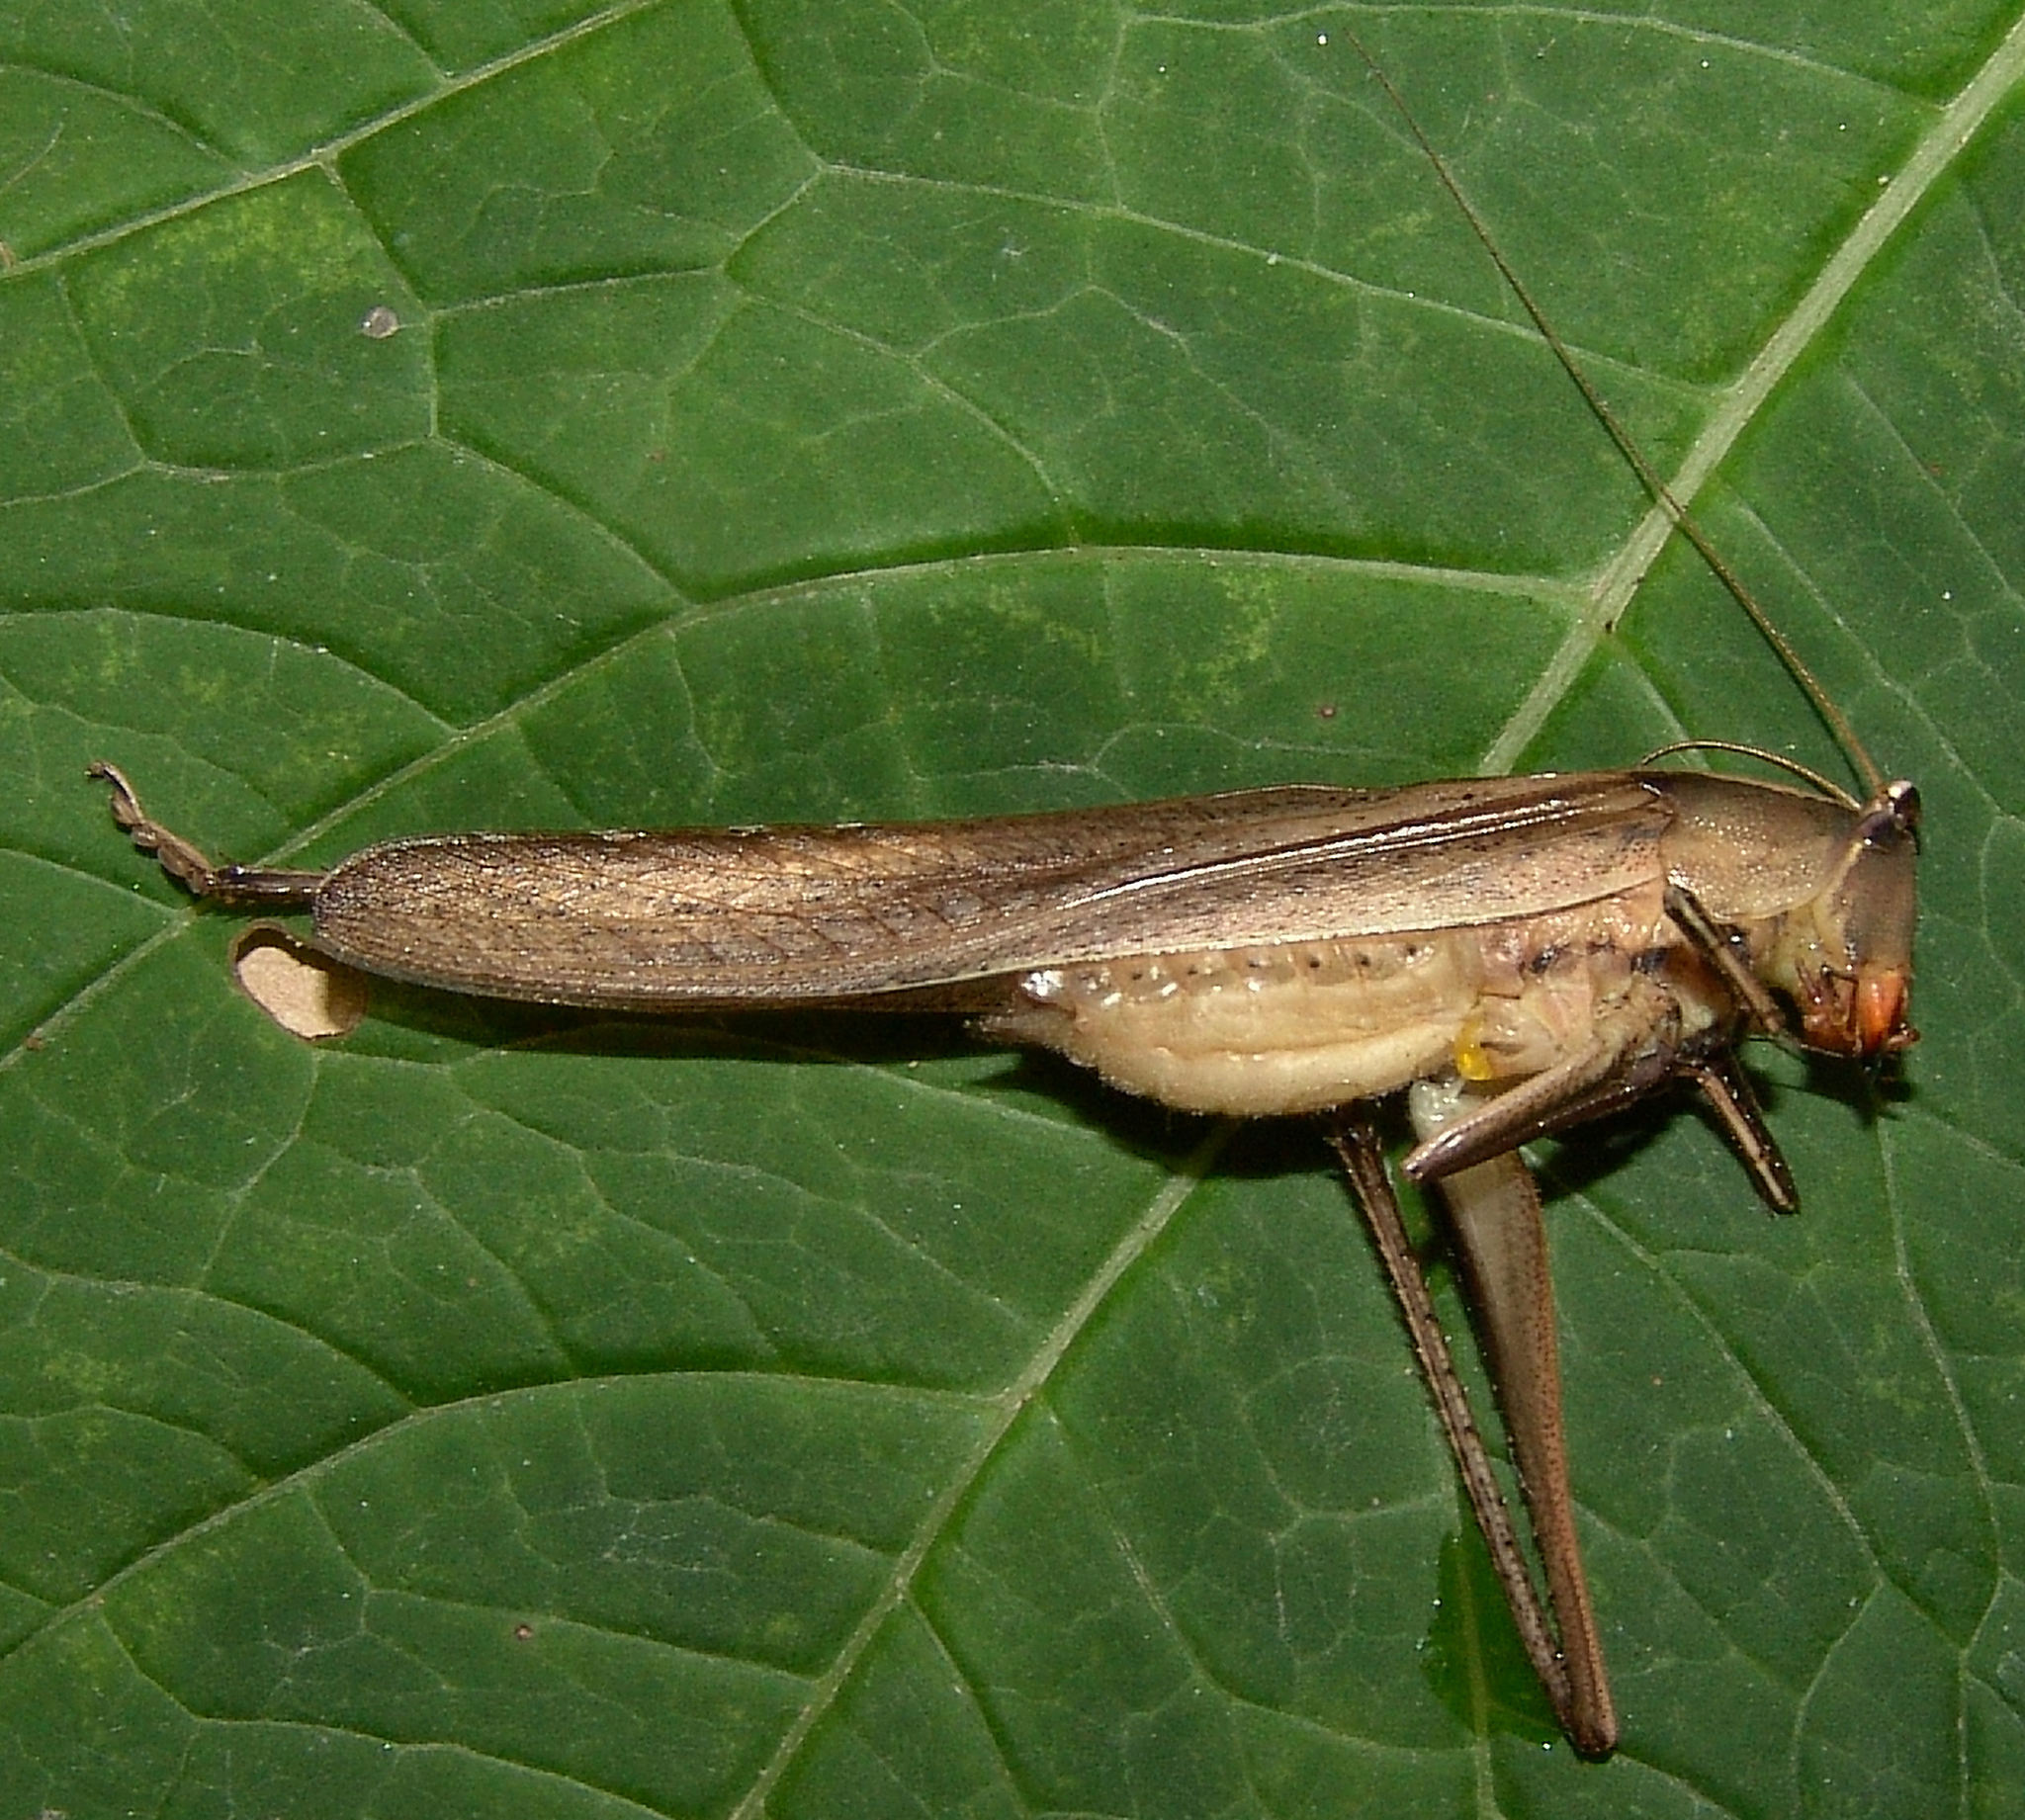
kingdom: Animalia
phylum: Arthropoda
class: Insecta
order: Orthoptera
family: Tettigoniidae
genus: Neoconocephalus
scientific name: Neoconocephalus retusus
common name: Round-tipped conehead
